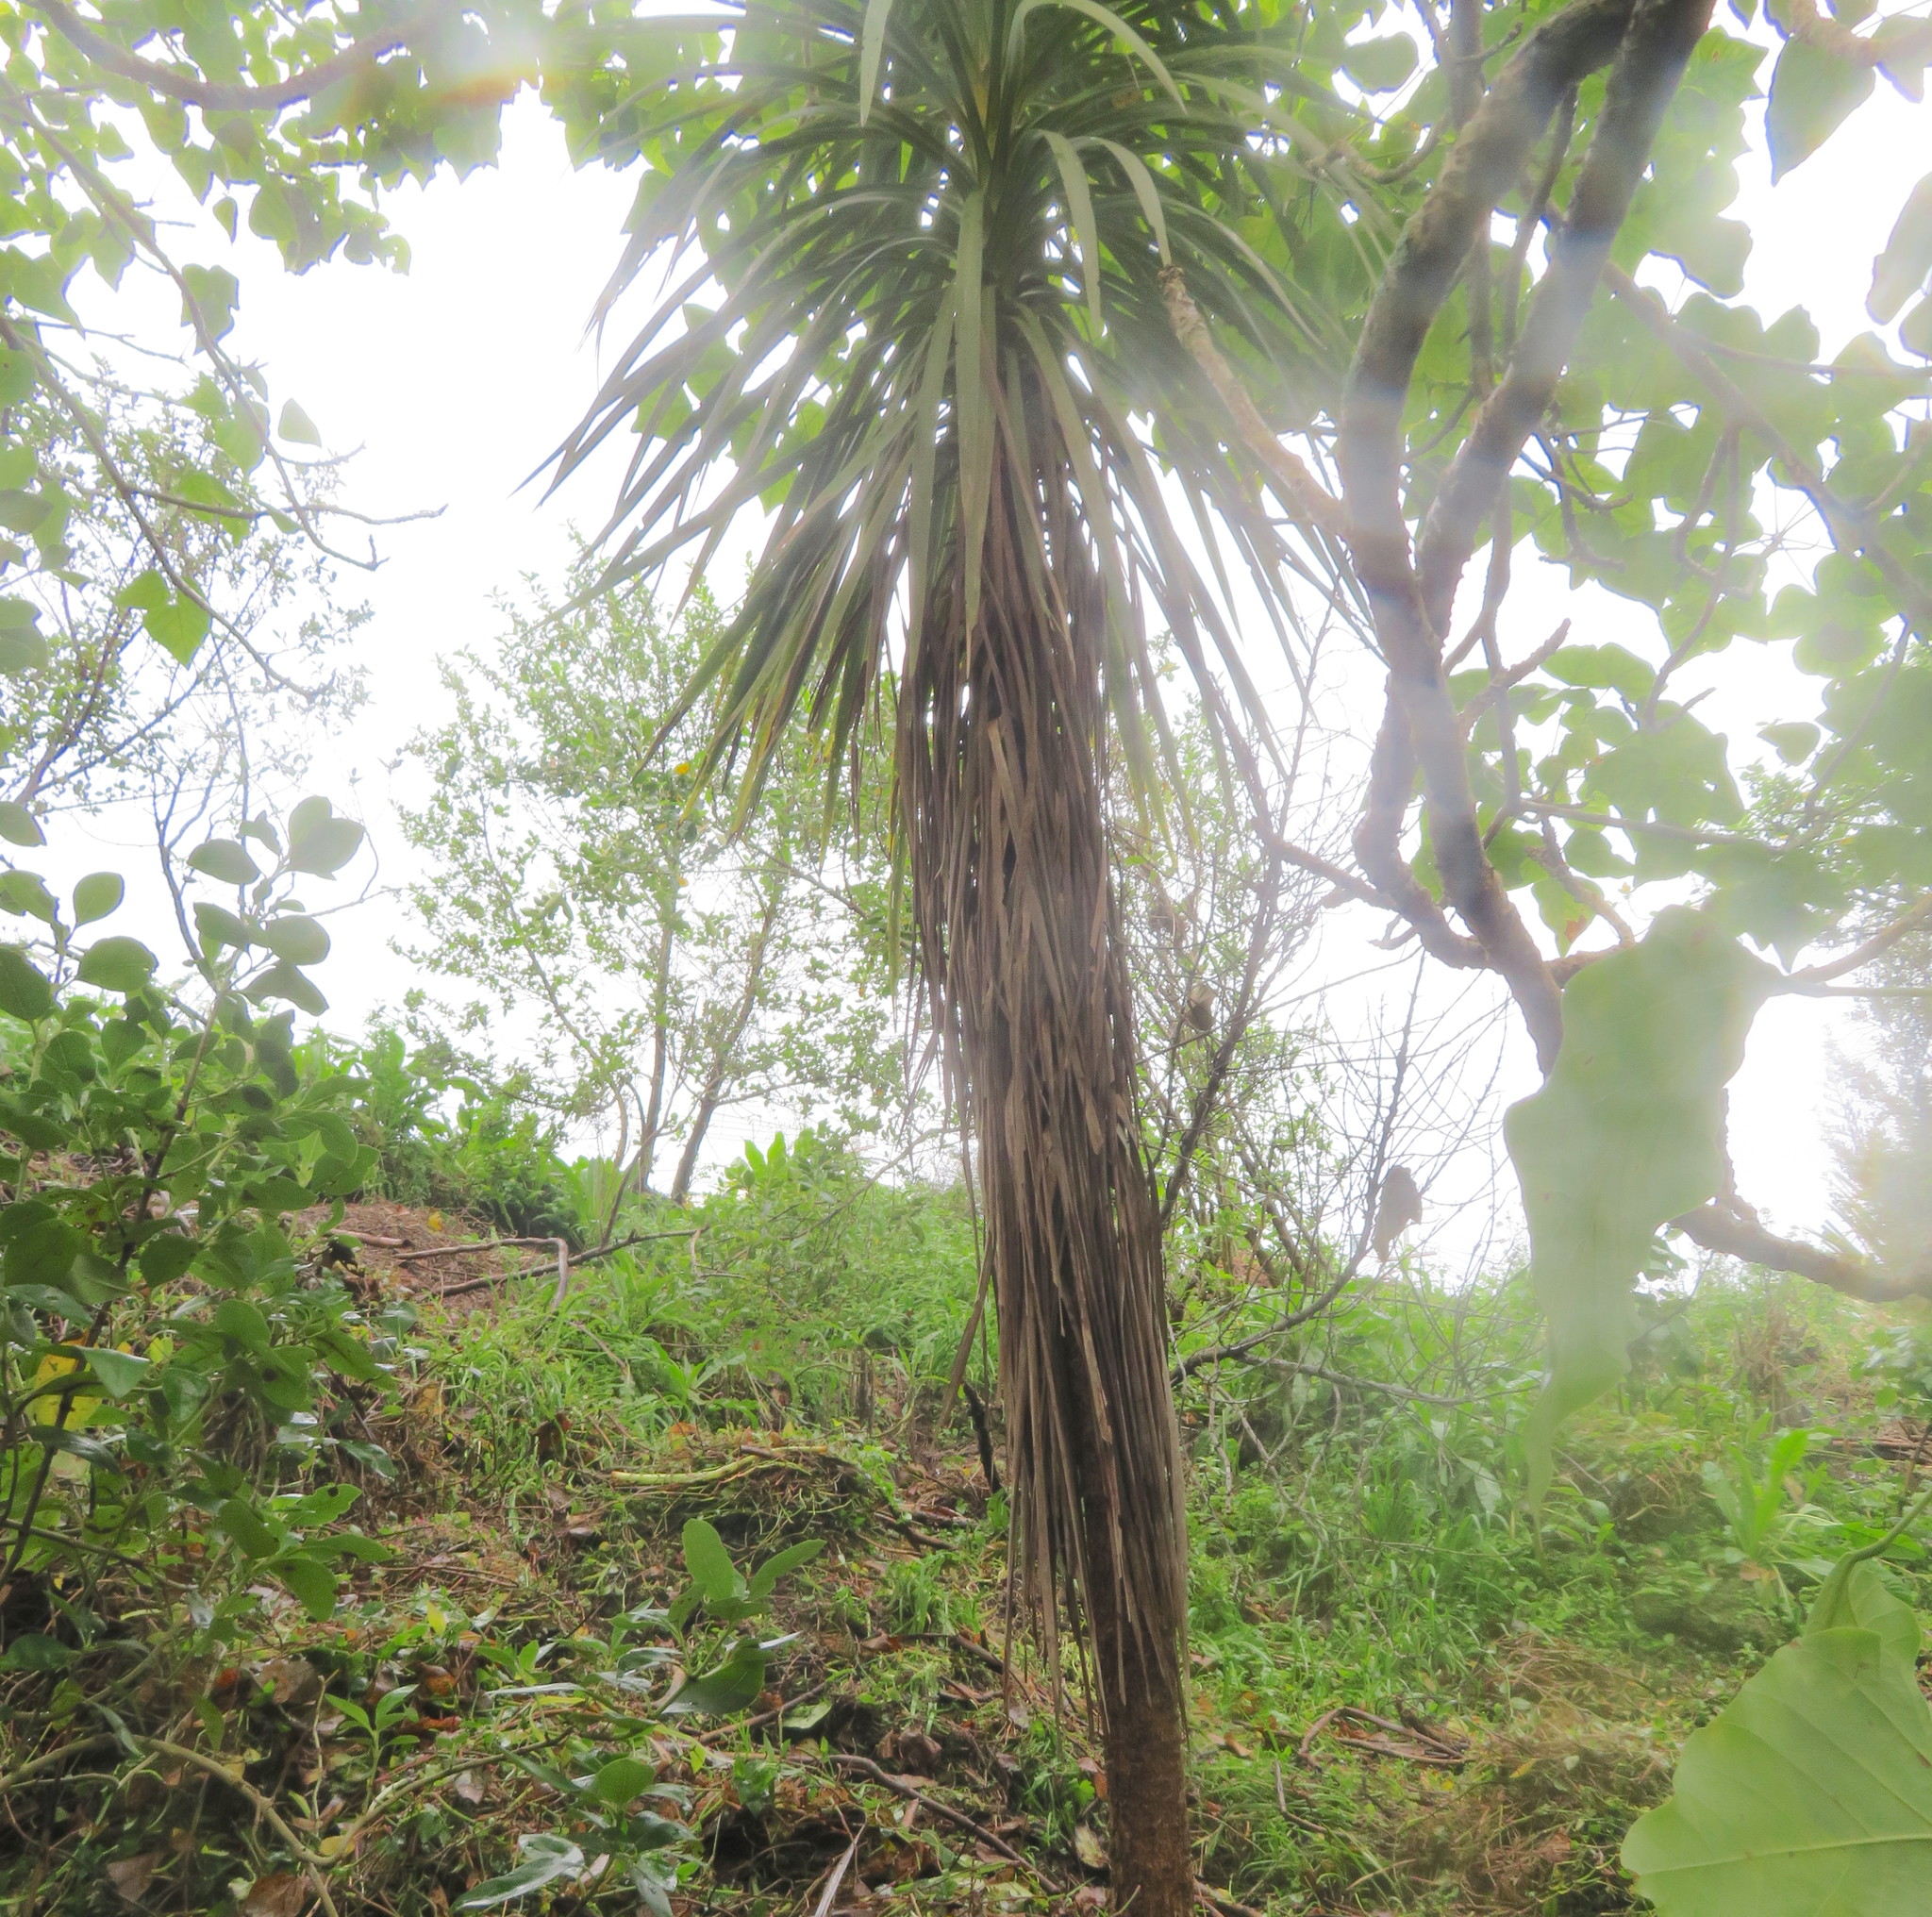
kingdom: Plantae
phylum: Tracheophyta
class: Magnoliopsida
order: Gentianales
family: Rubiaceae
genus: Coprosma
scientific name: Coprosma robusta
